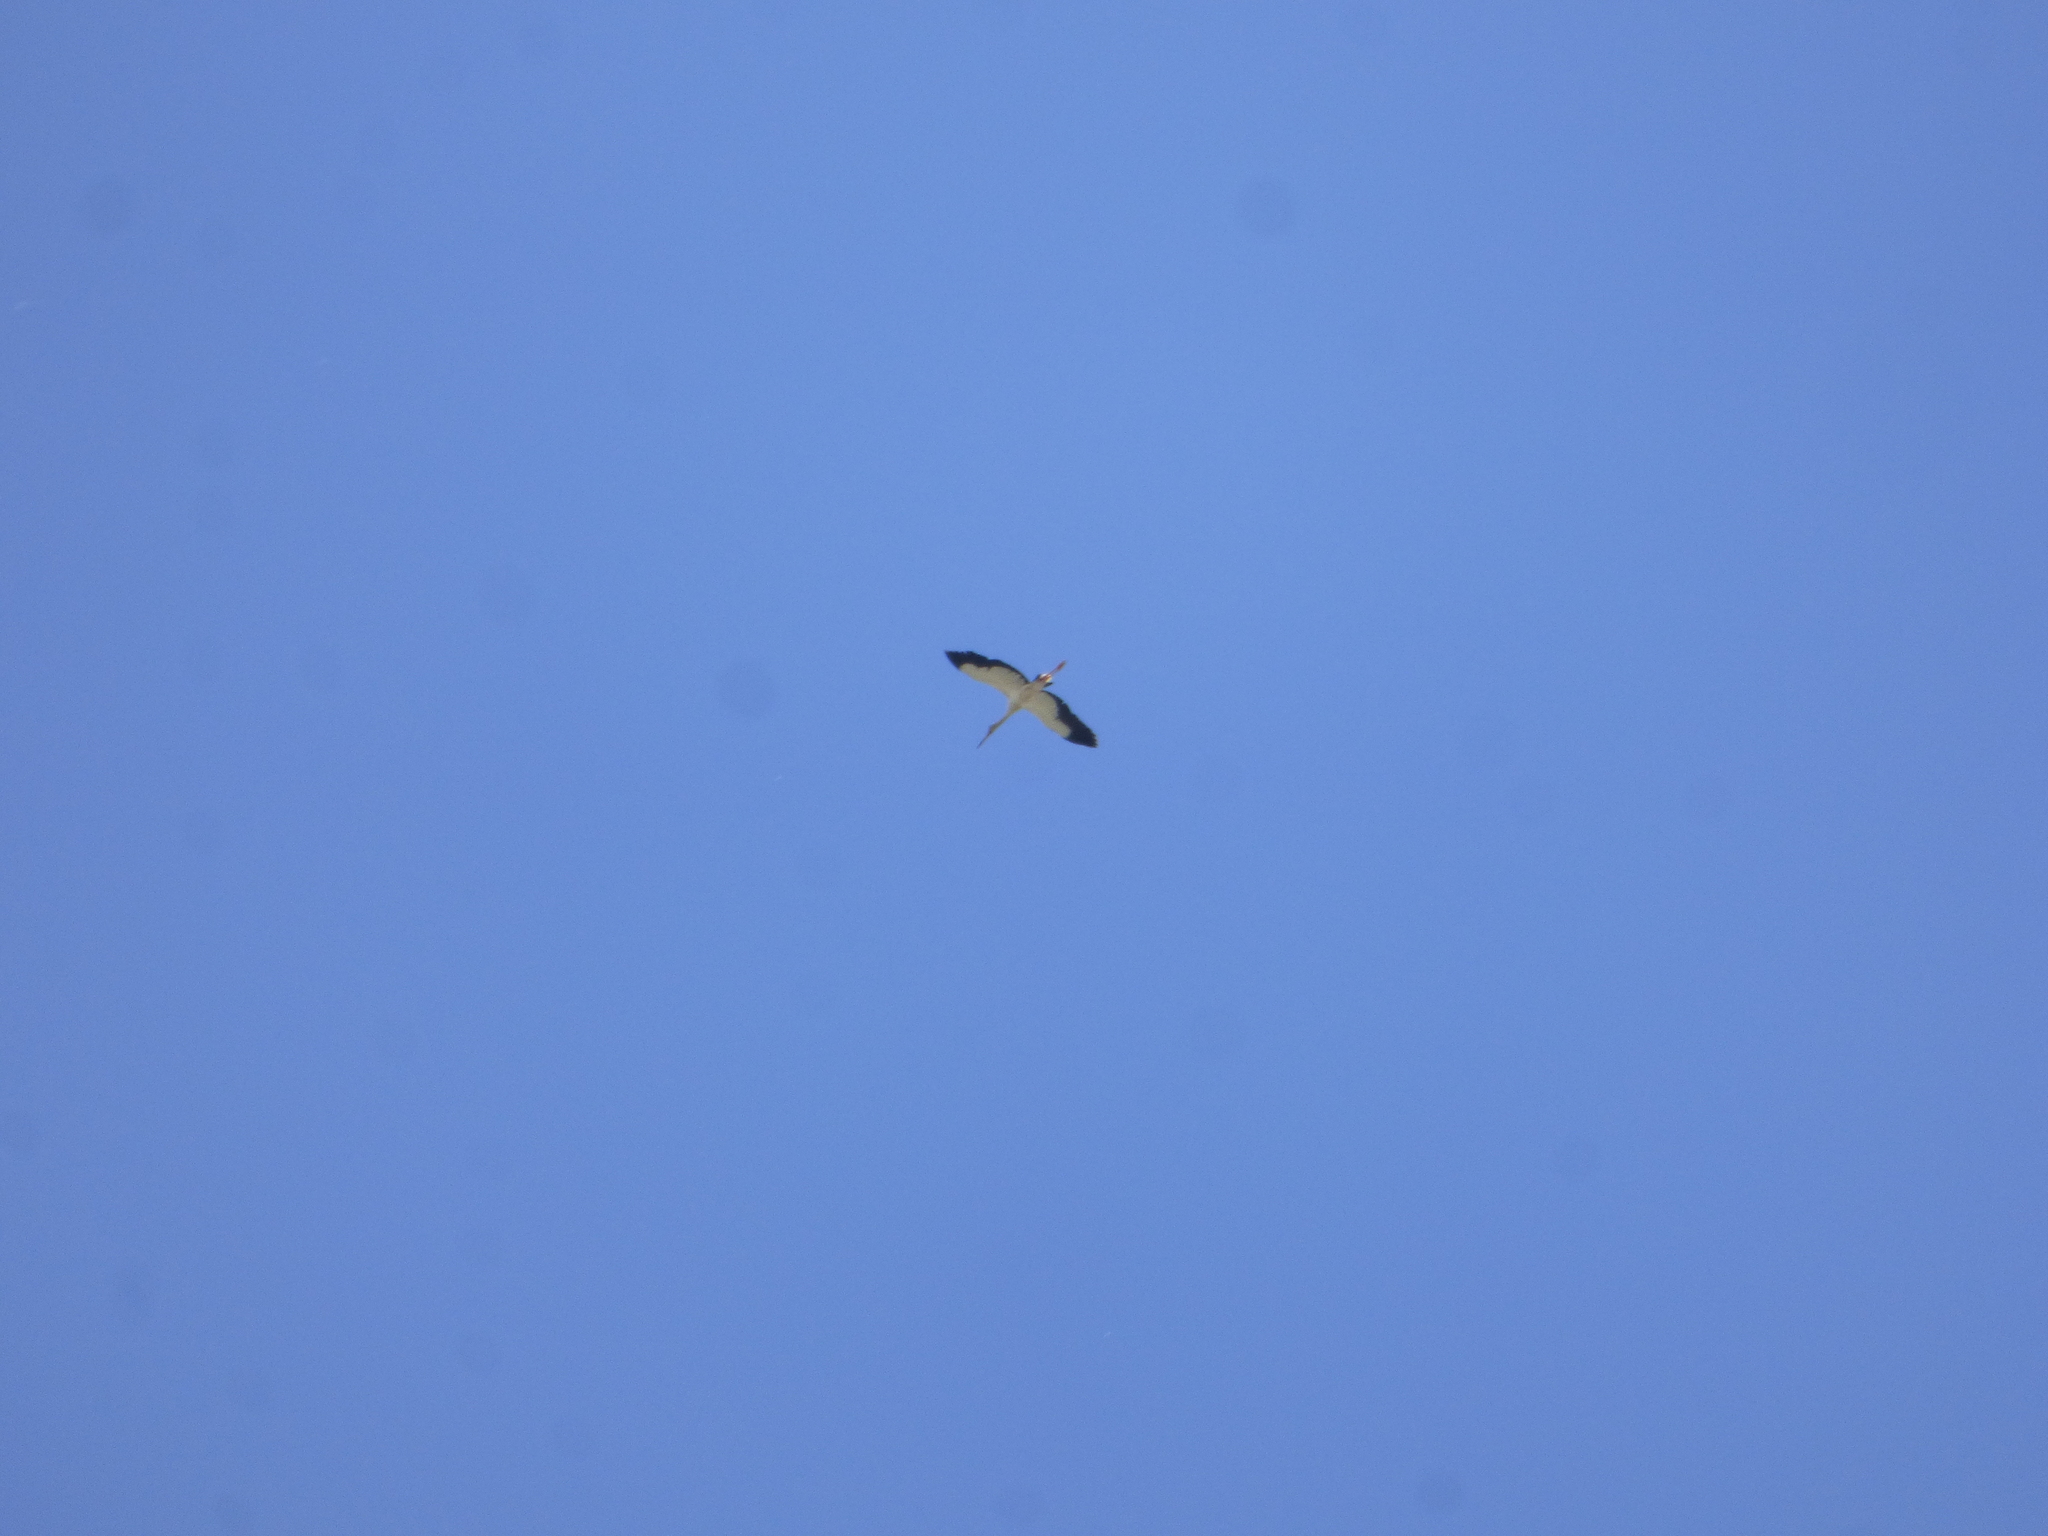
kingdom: Animalia
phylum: Chordata
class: Aves
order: Ciconiiformes
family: Ciconiidae
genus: Ciconia
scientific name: Ciconia maguari
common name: Maguari stork
